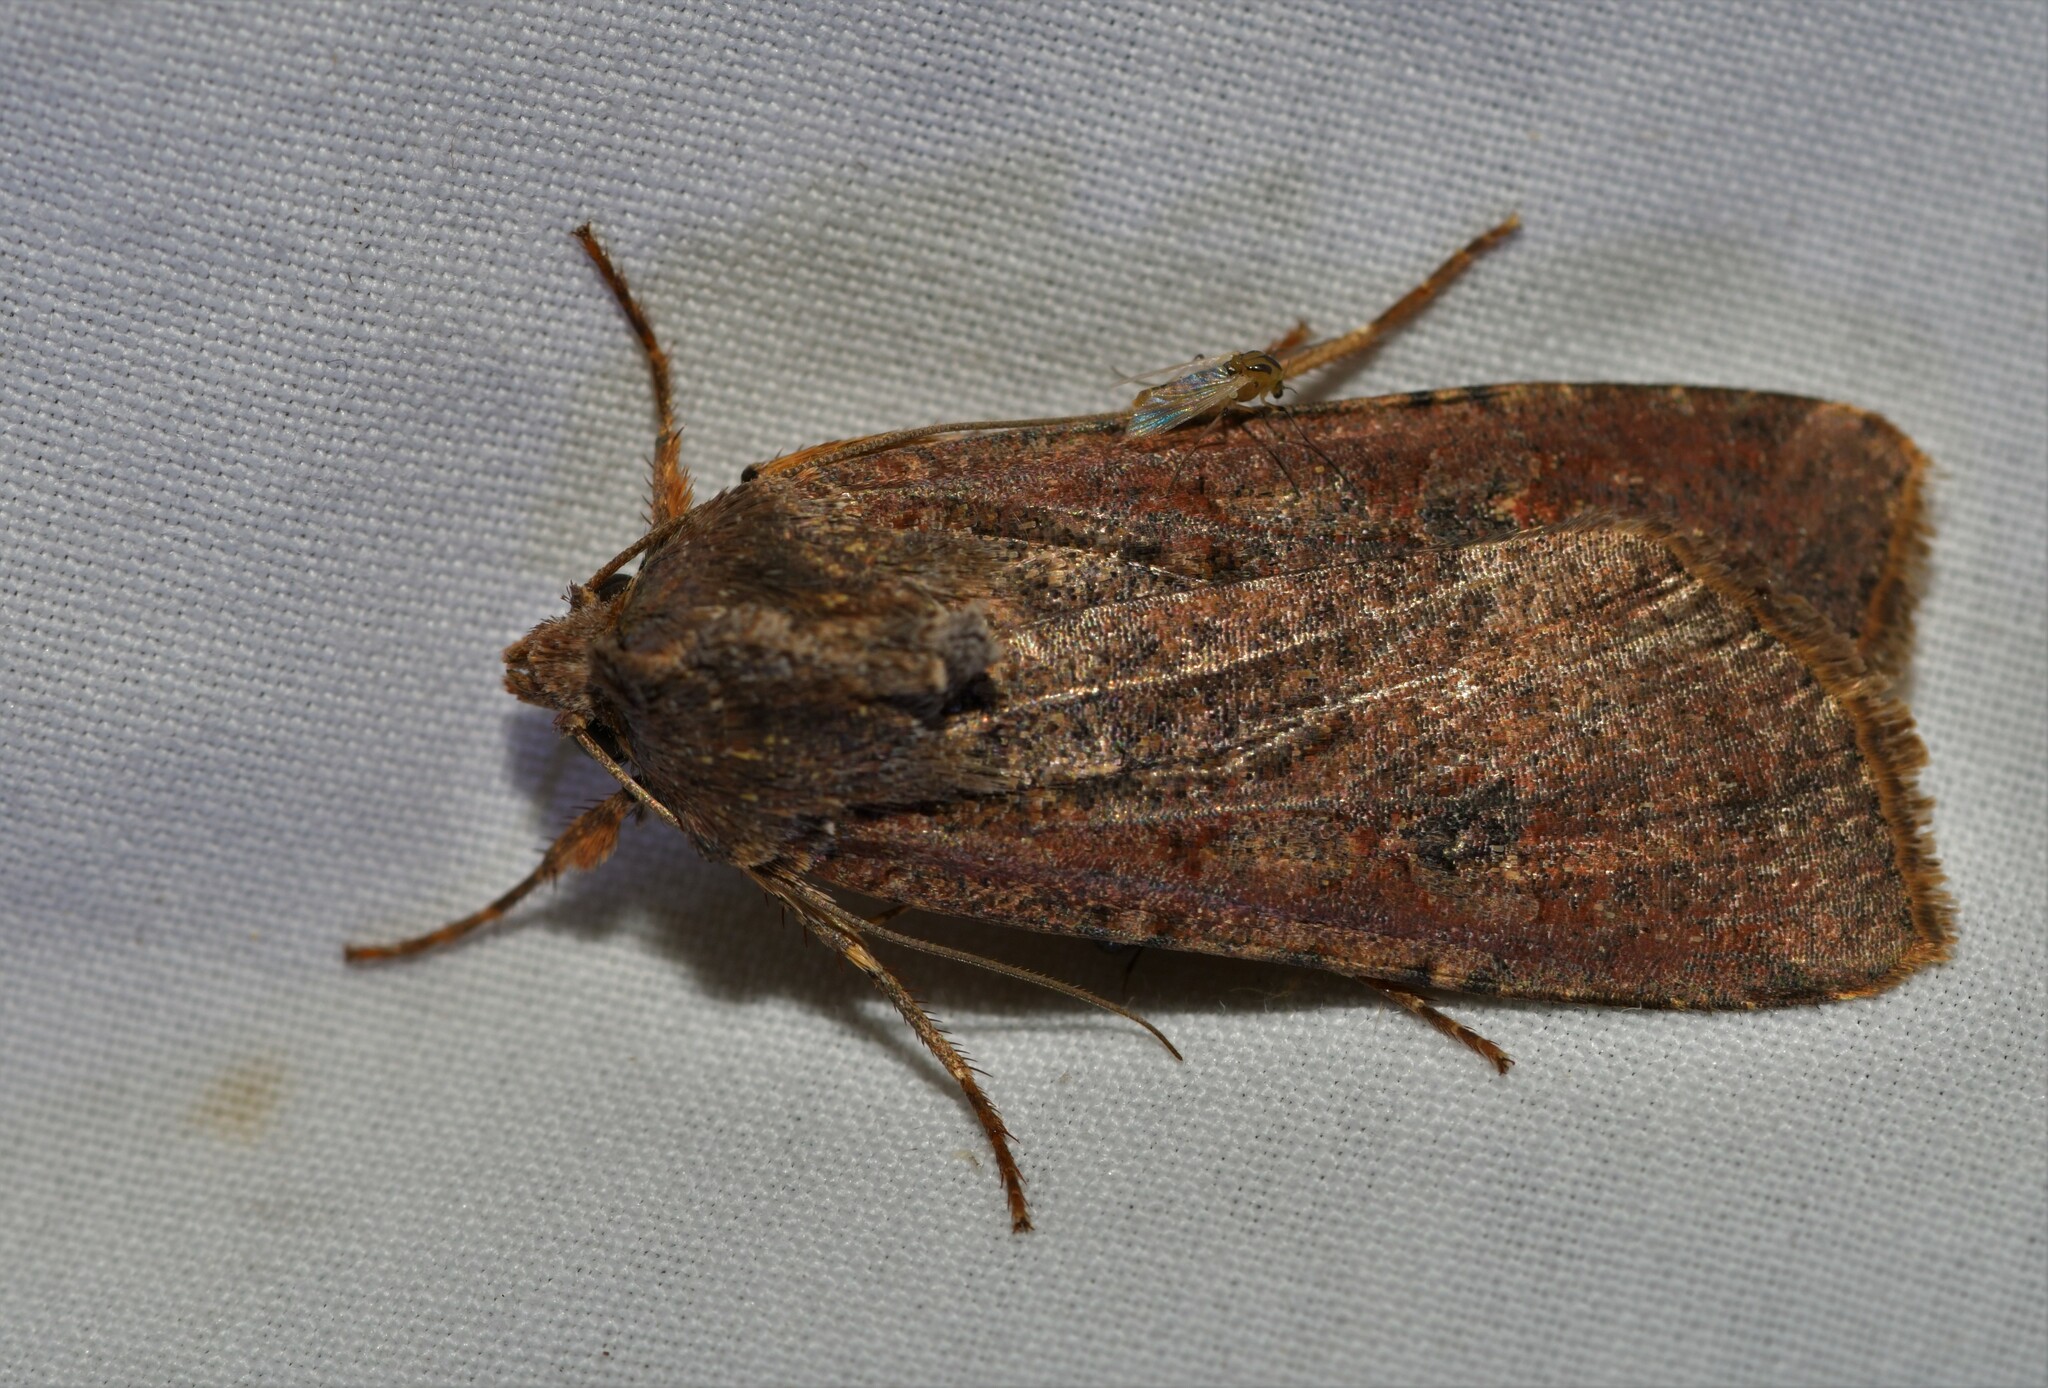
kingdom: Animalia
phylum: Arthropoda
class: Insecta
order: Lepidoptera
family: Noctuidae
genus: Peridroma
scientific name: Peridroma saucia
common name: Pearly underwing
